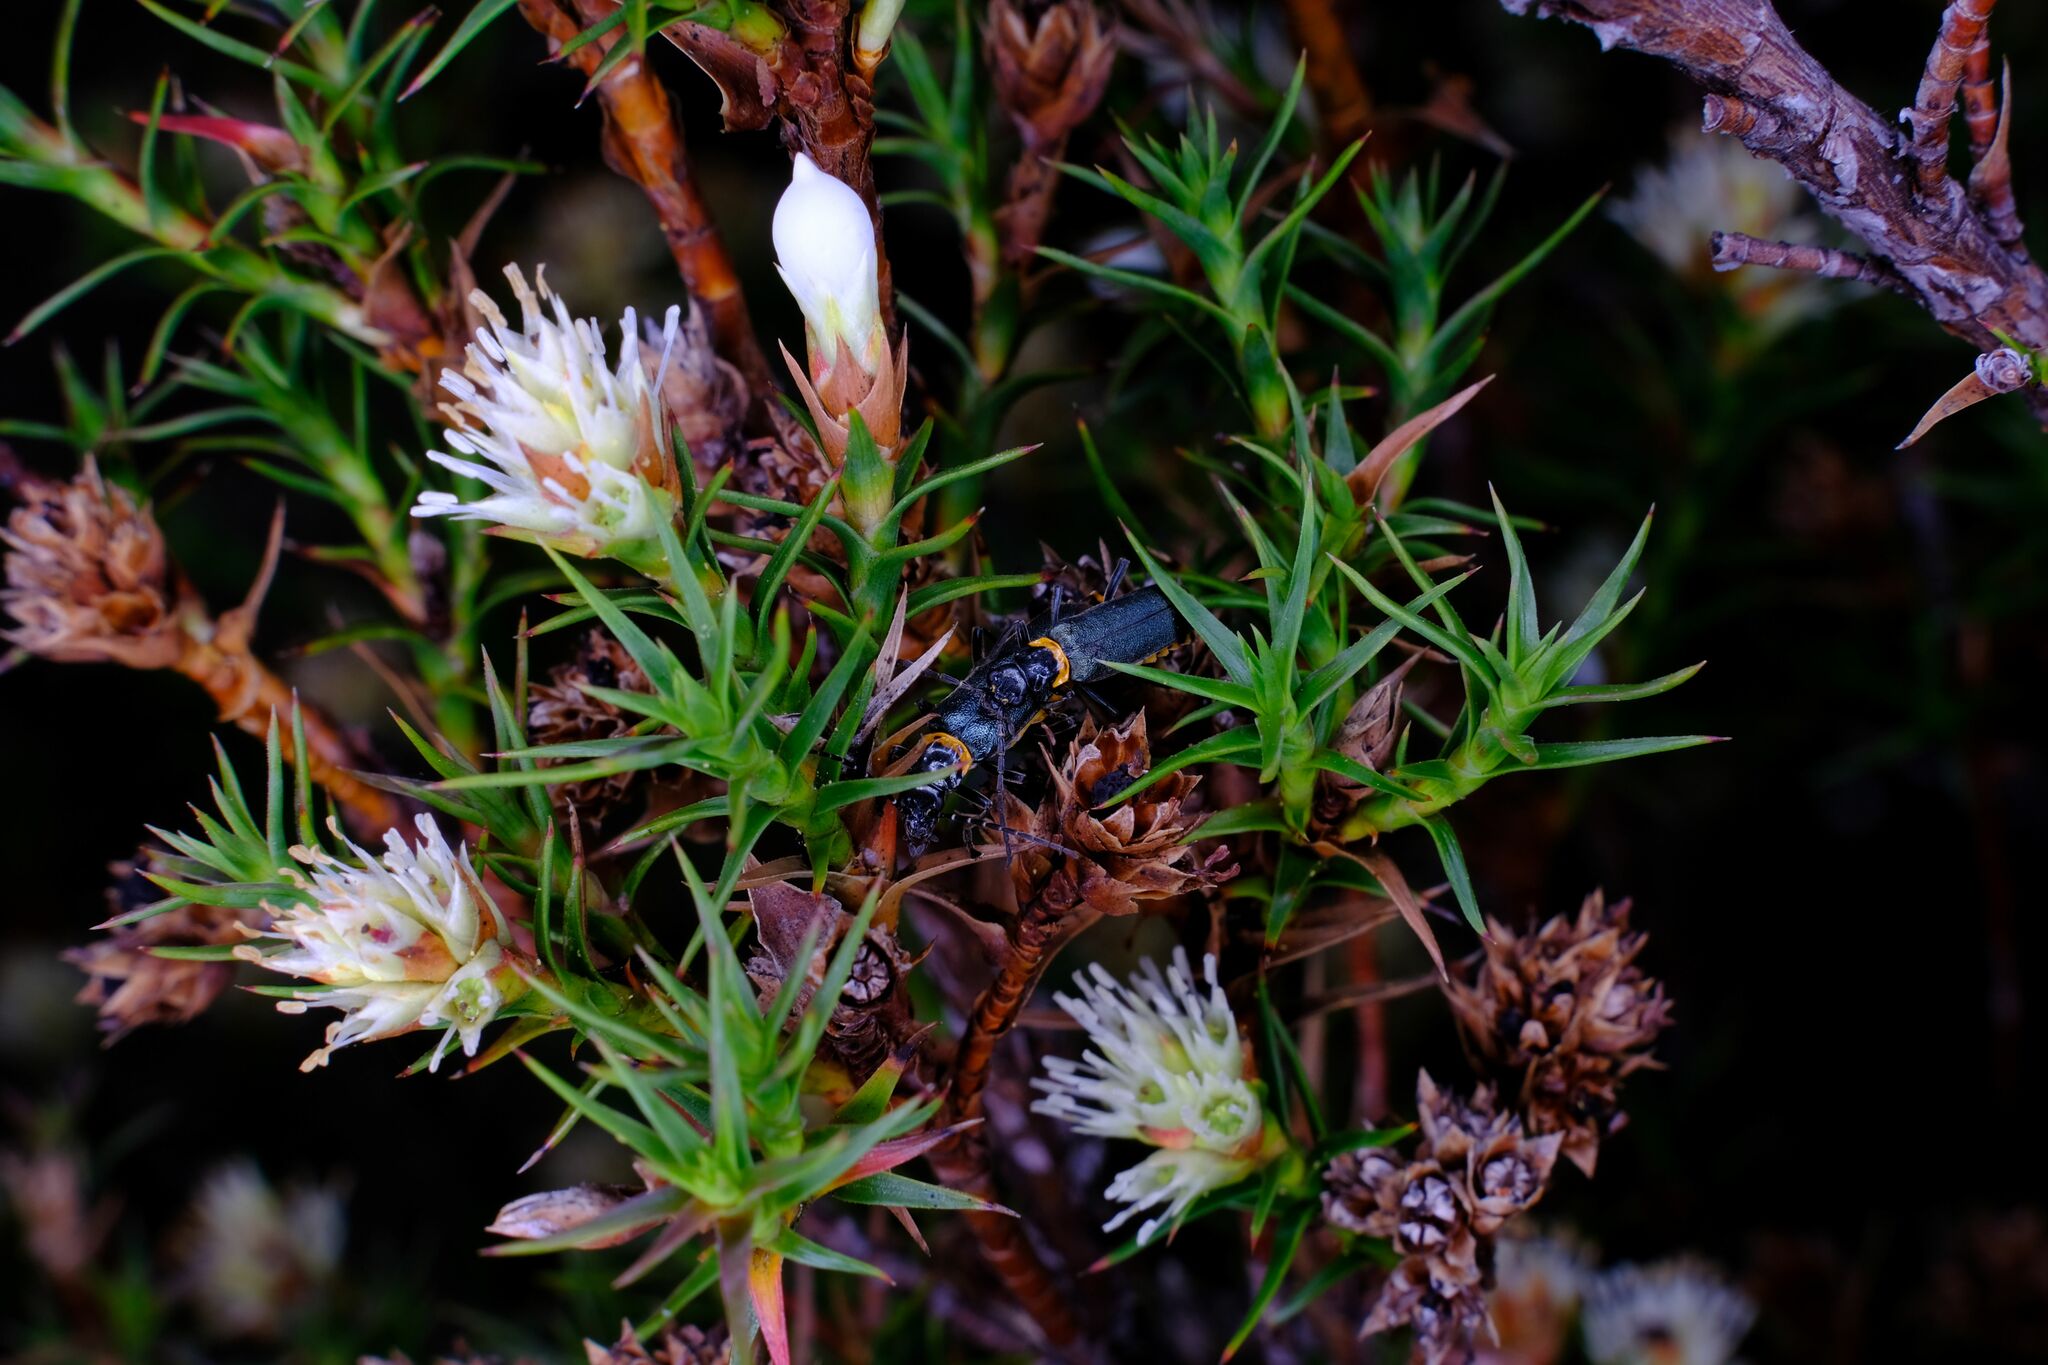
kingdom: Plantae
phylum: Tracheophyta
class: Magnoliopsida
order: Ericales
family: Ericaceae
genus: Dracophyllum
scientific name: Dracophyllum laciniatum
